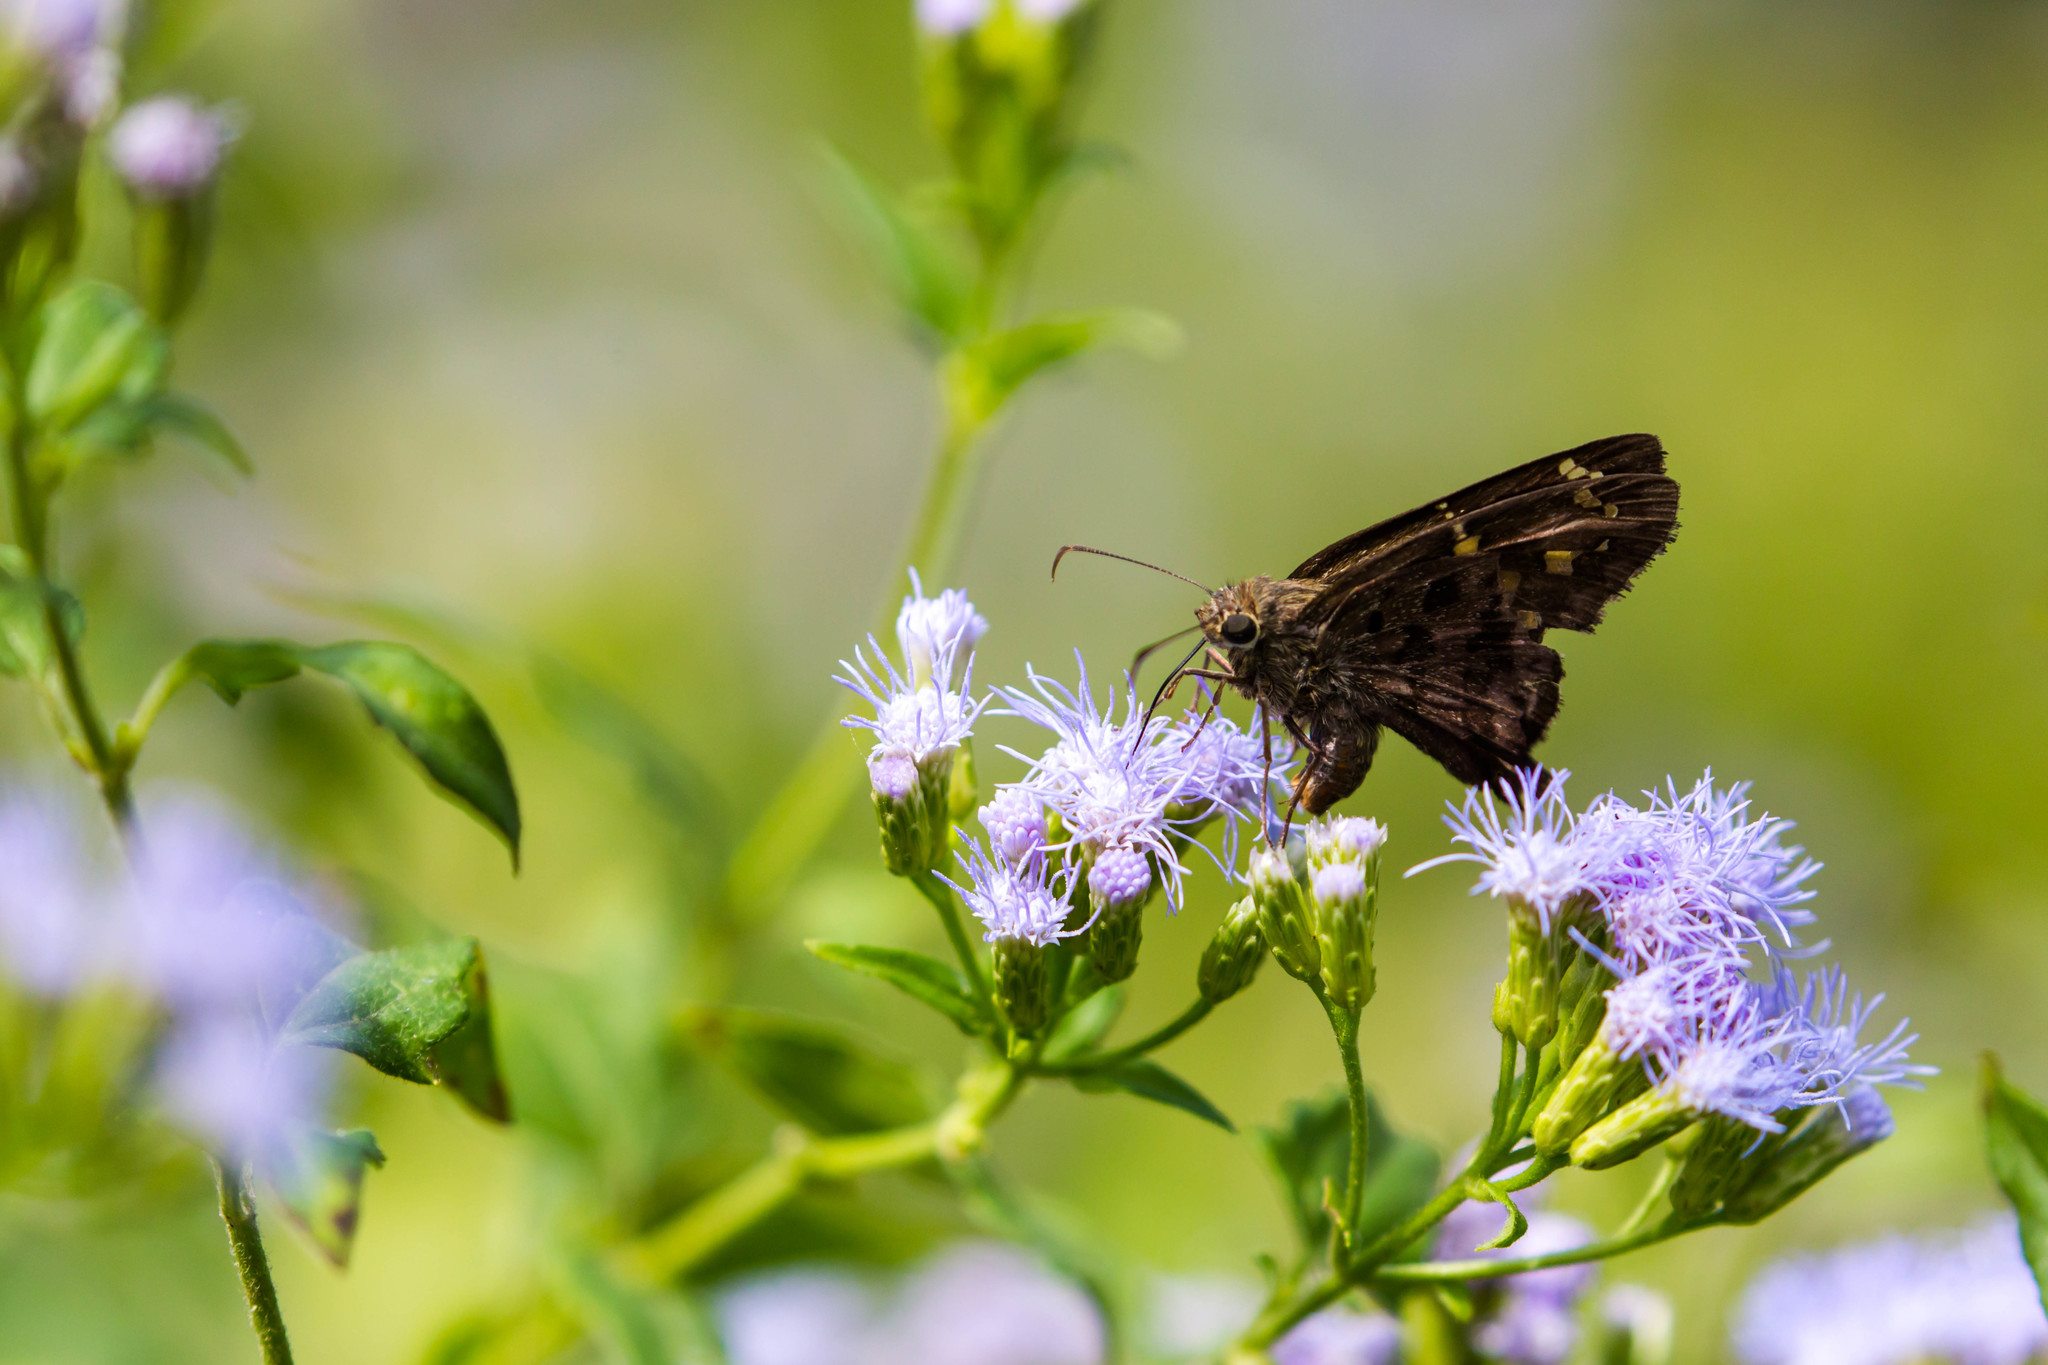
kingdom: Animalia
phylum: Arthropoda
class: Insecta
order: Lepidoptera
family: Hesperiidae
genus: Thorybes
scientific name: Thorybes
